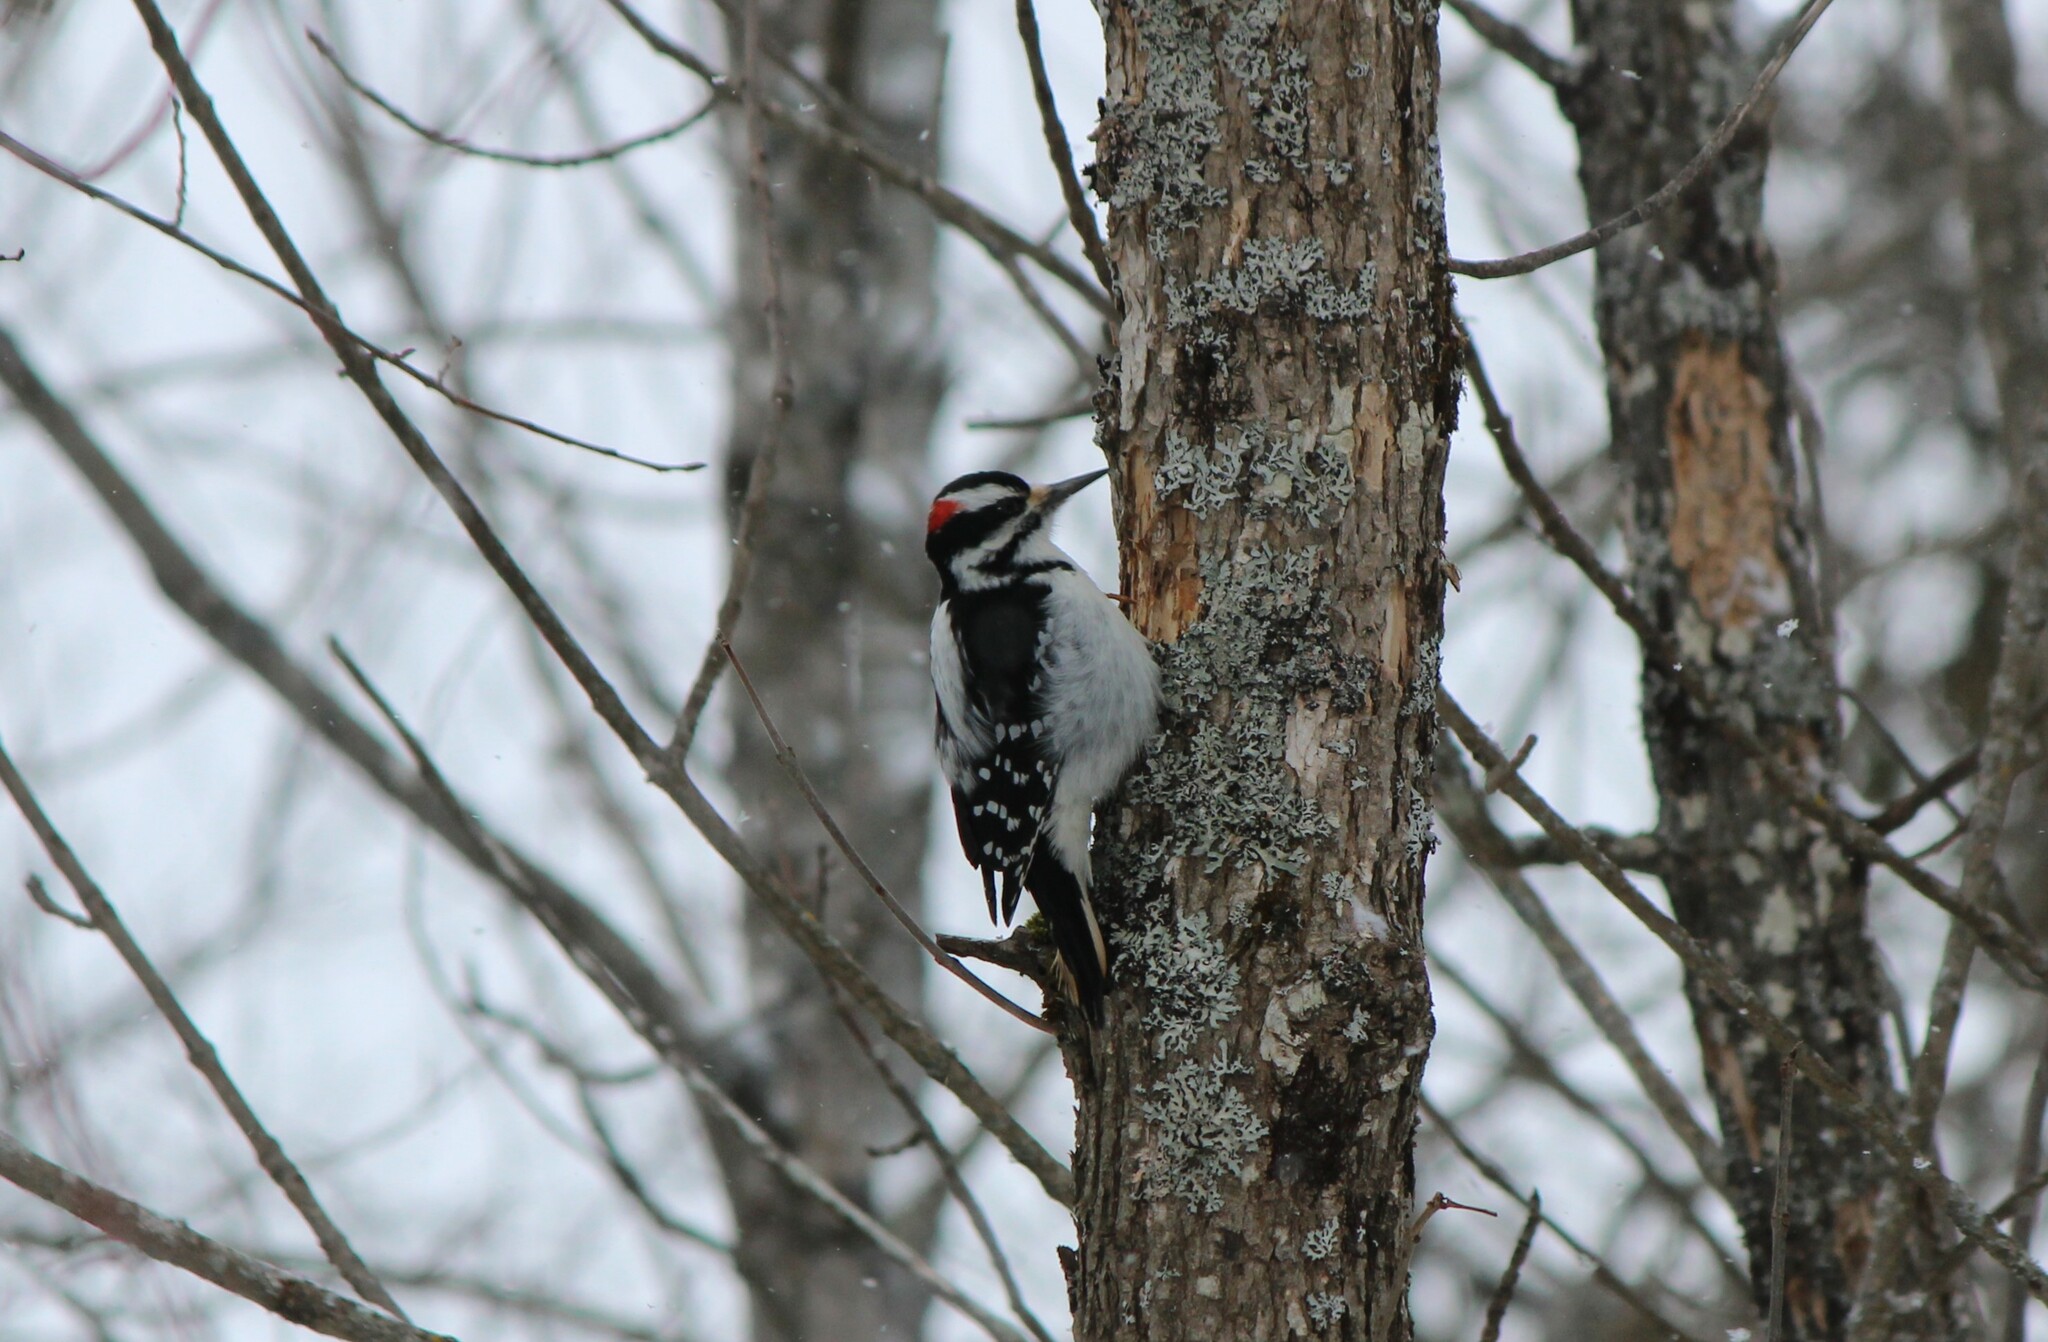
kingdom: Animalia
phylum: Chordata
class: Aves
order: Piciformes
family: Picidae
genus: Leuconotopicus
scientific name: Leuconotopicus villosus
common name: Hairy woodpecker
